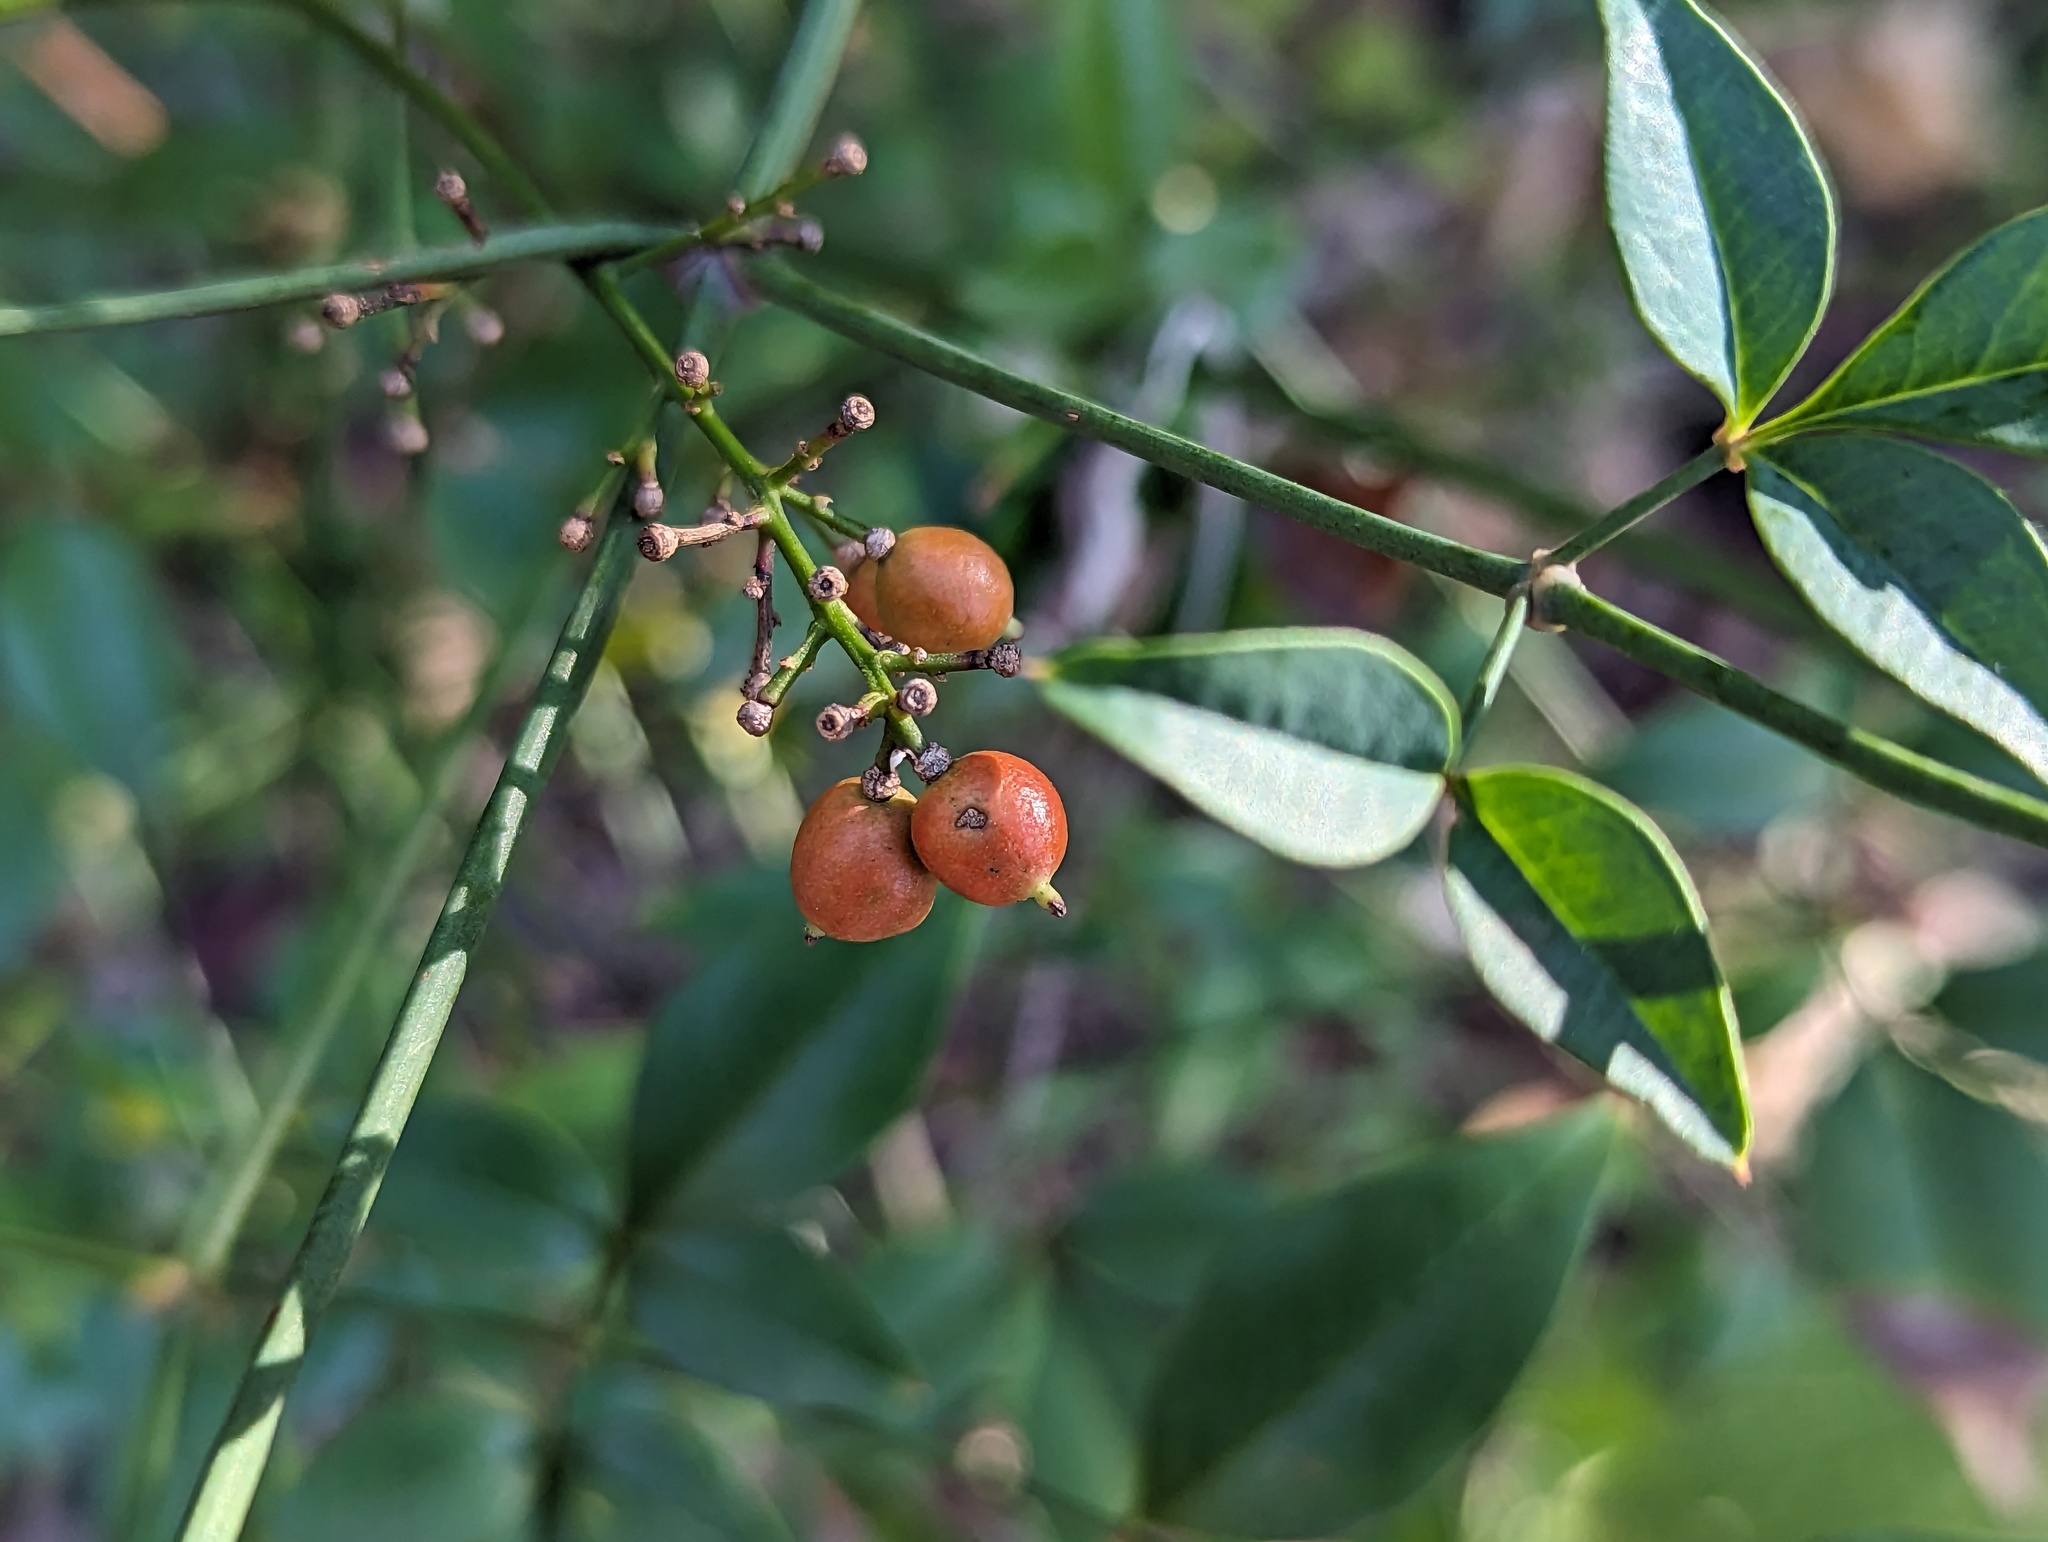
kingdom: Plantae
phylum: Tracheophyta
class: Magnoliopsida
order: Ranunculales
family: Berberidaceae
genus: Nandina
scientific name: Nandina domestica
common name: Sacred bamboo
